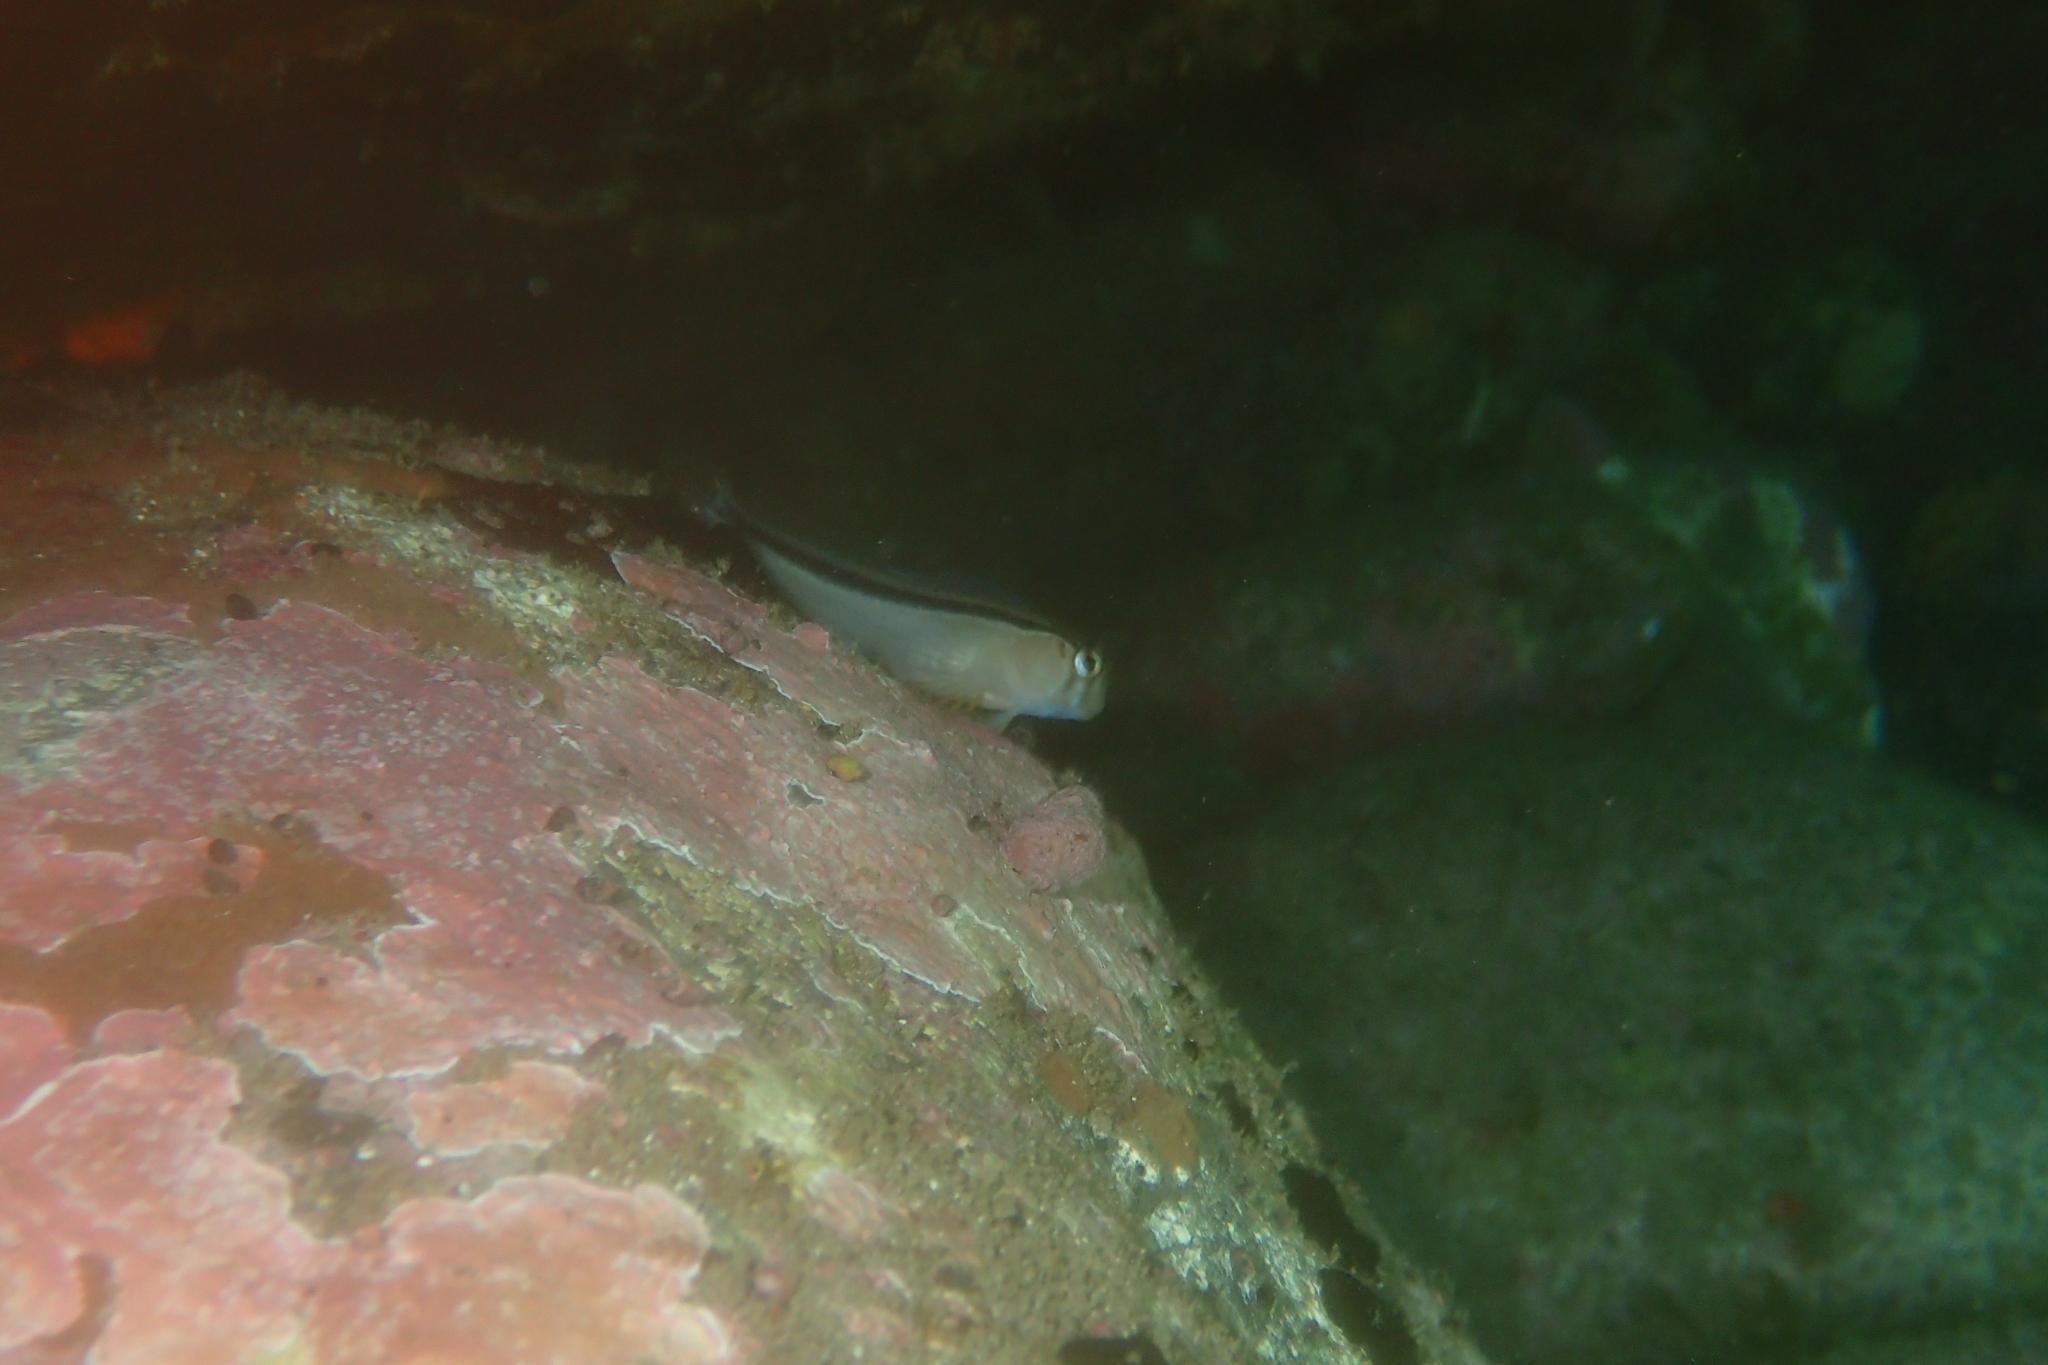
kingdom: Animalia
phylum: Chordata
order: Perciformes
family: Blenniidae
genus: Parablennius
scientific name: Parablennius laticlavius
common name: Crested blenny
